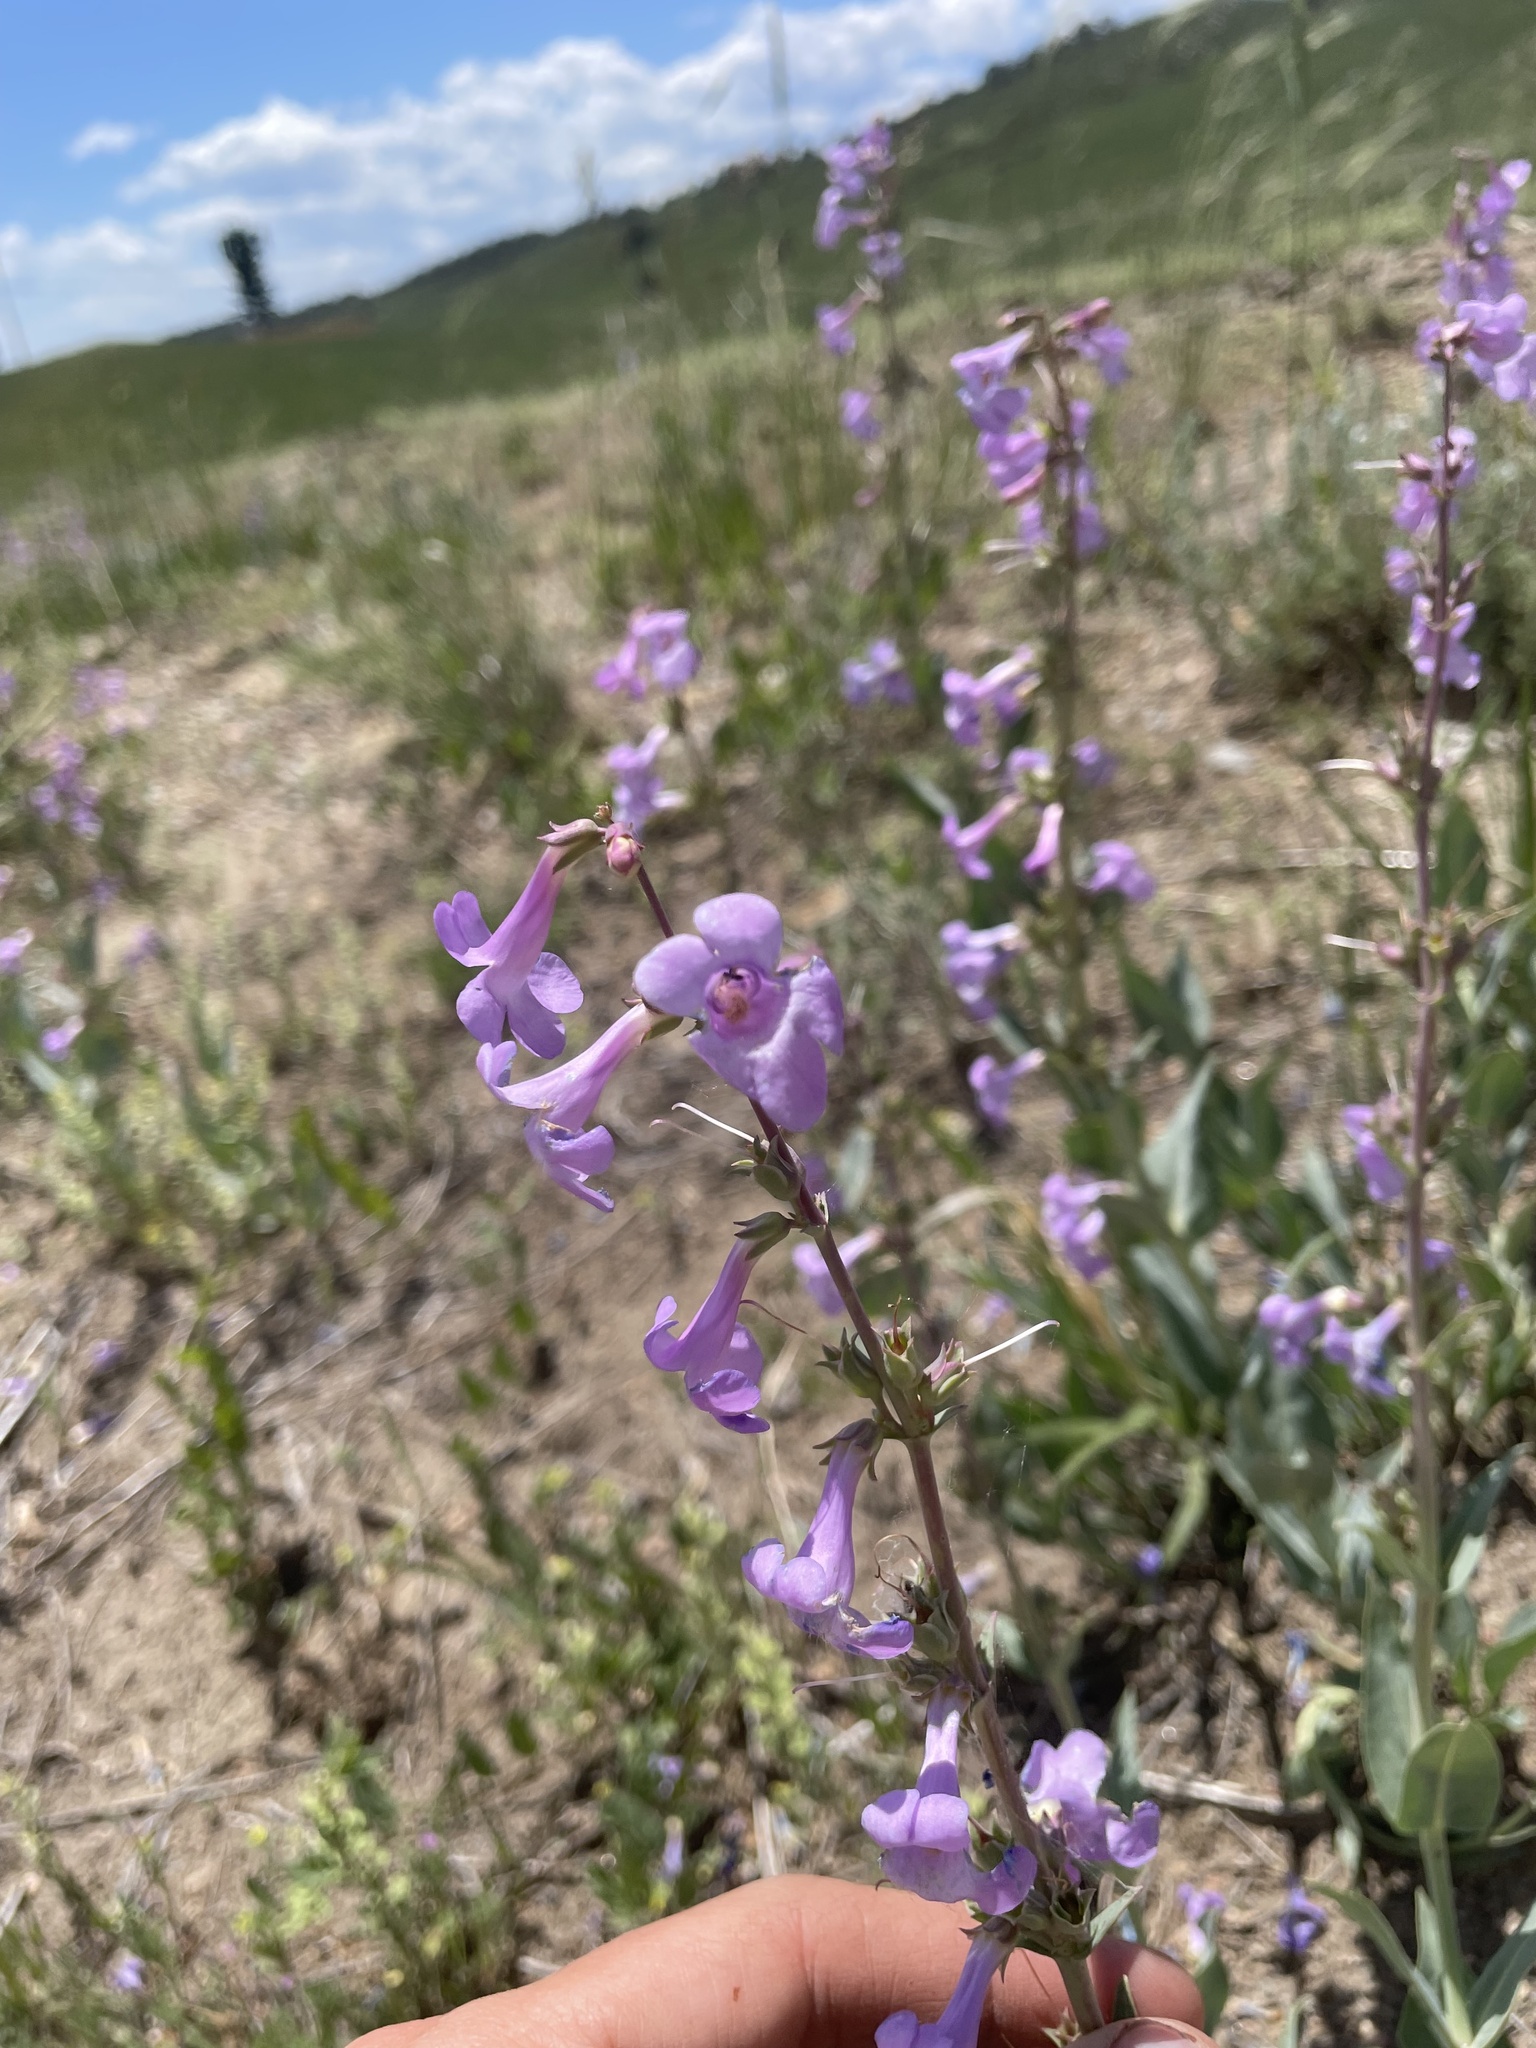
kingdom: Plantae
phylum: Tracheophyta
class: Magnoliopsida
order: Lamiales
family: Plantaginaceae
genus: Penstemon
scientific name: Penstemon secundiflorus
